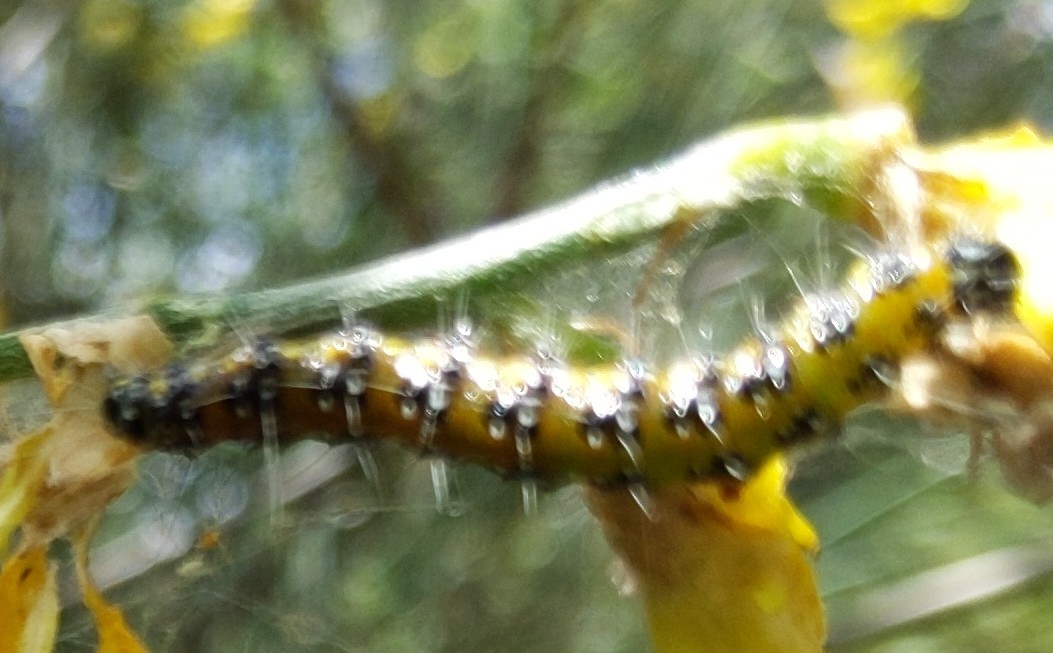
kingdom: Animalia
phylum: Arthropoda
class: Insecta
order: Lepidoptera
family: Crambidae
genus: Uresiphita
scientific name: Uresiphita reversalis
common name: Genista broom moth
